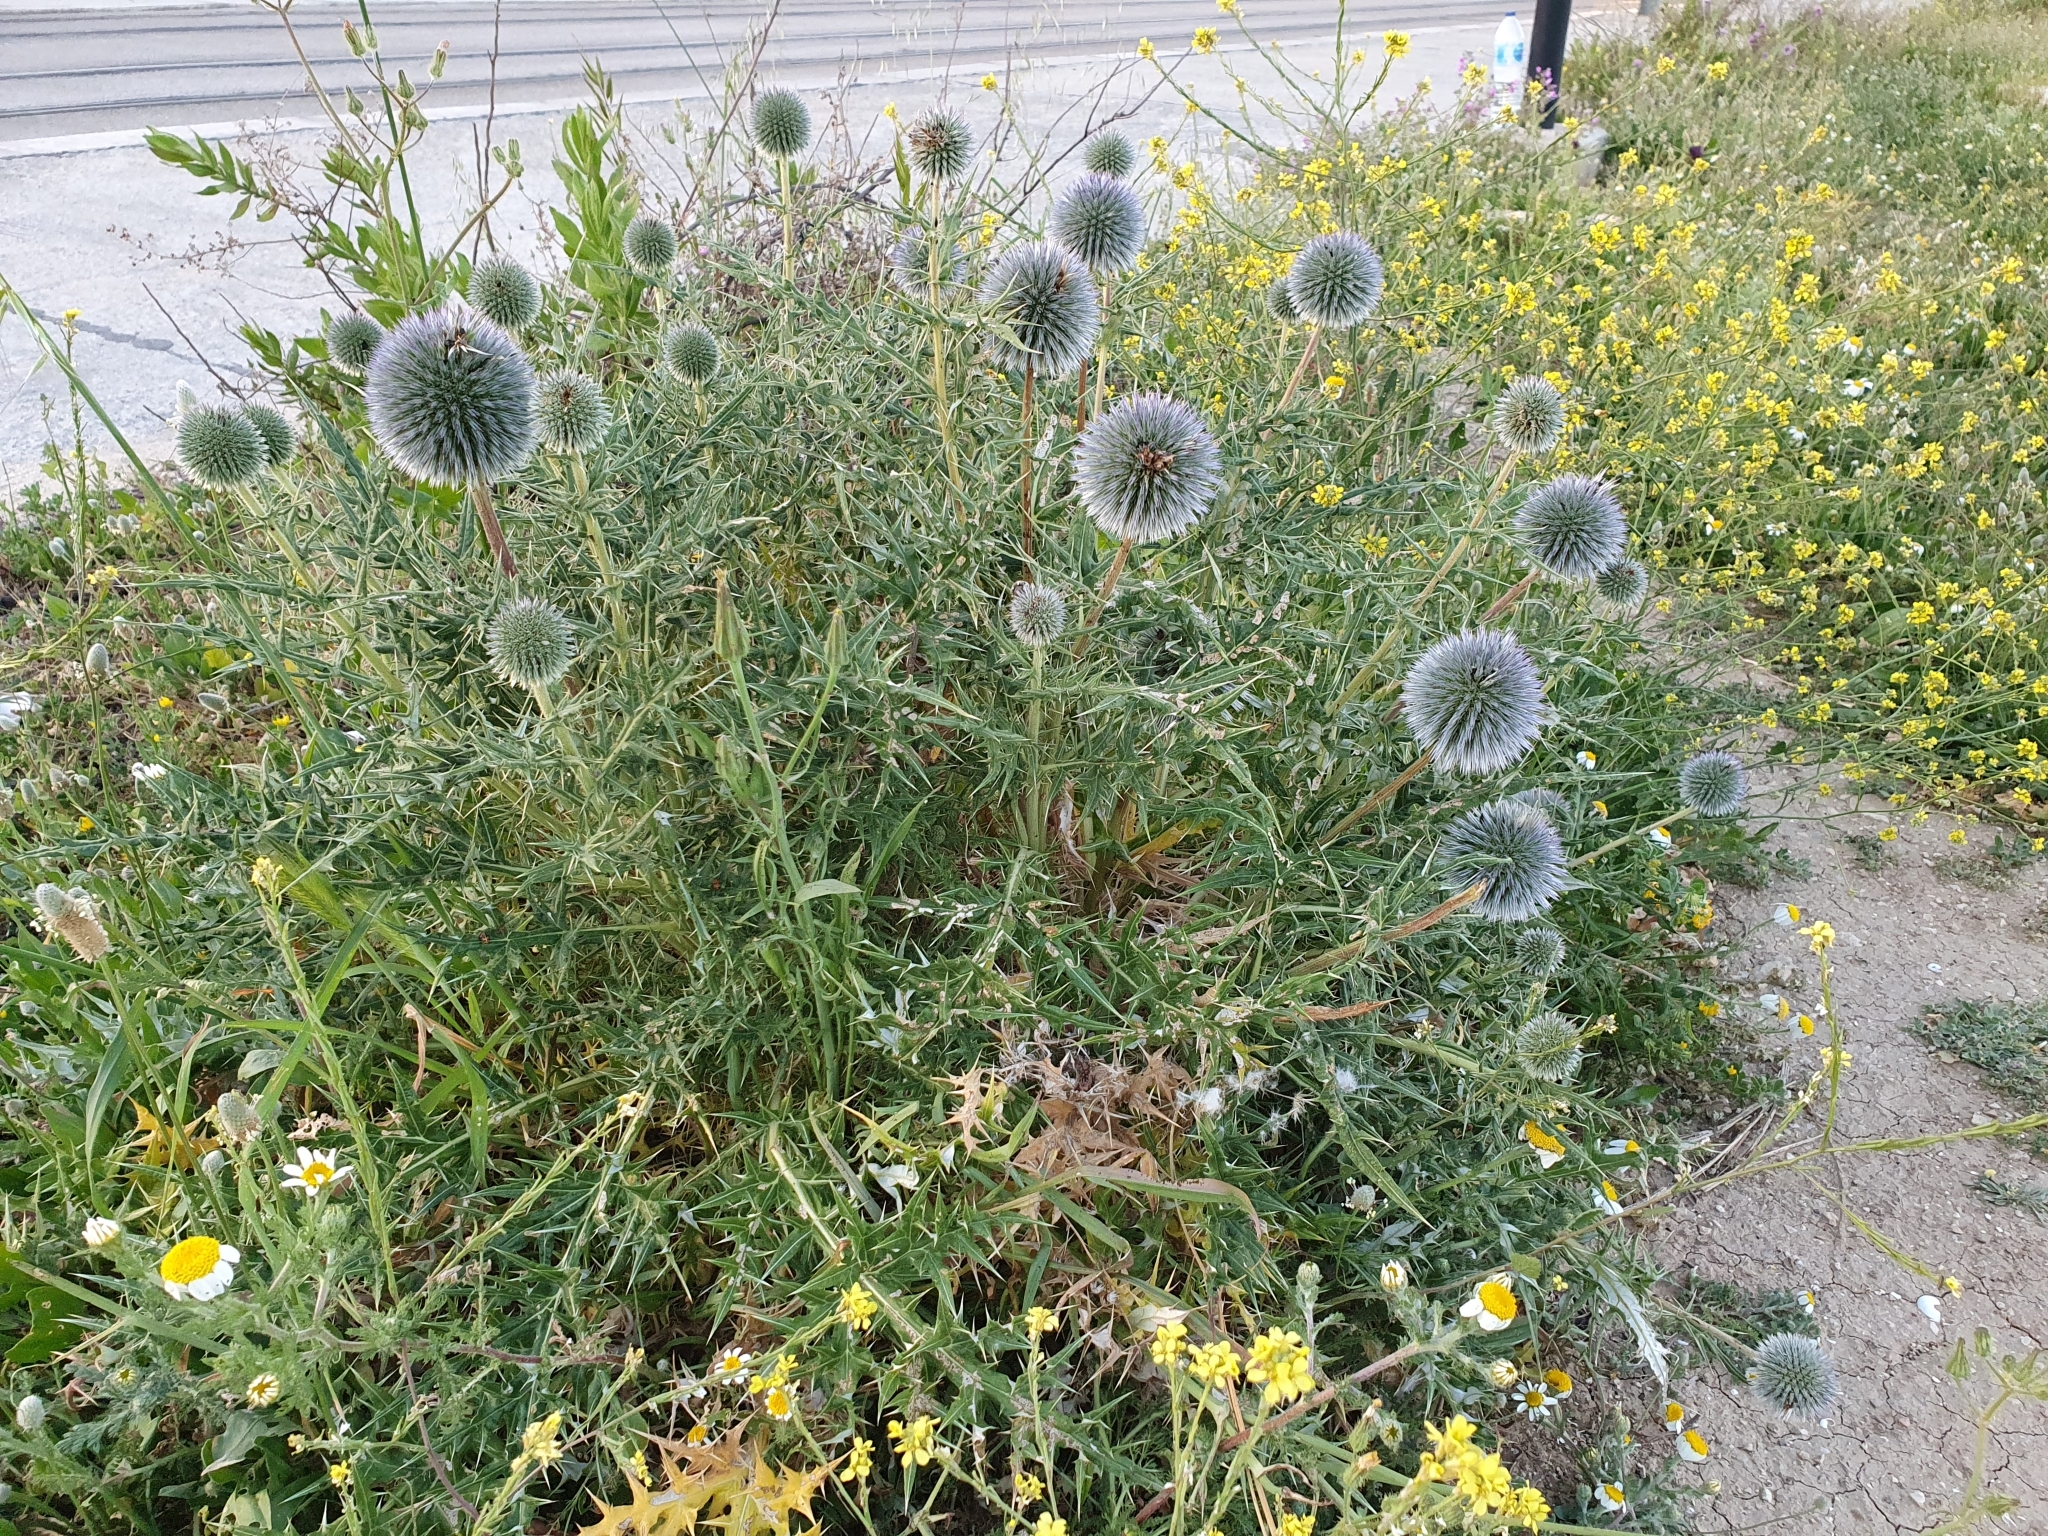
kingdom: Plantae
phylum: Tracheophyta
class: Magnoliopsida
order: Asterales
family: Asteraceae
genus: Echinops
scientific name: Echinops bovei
